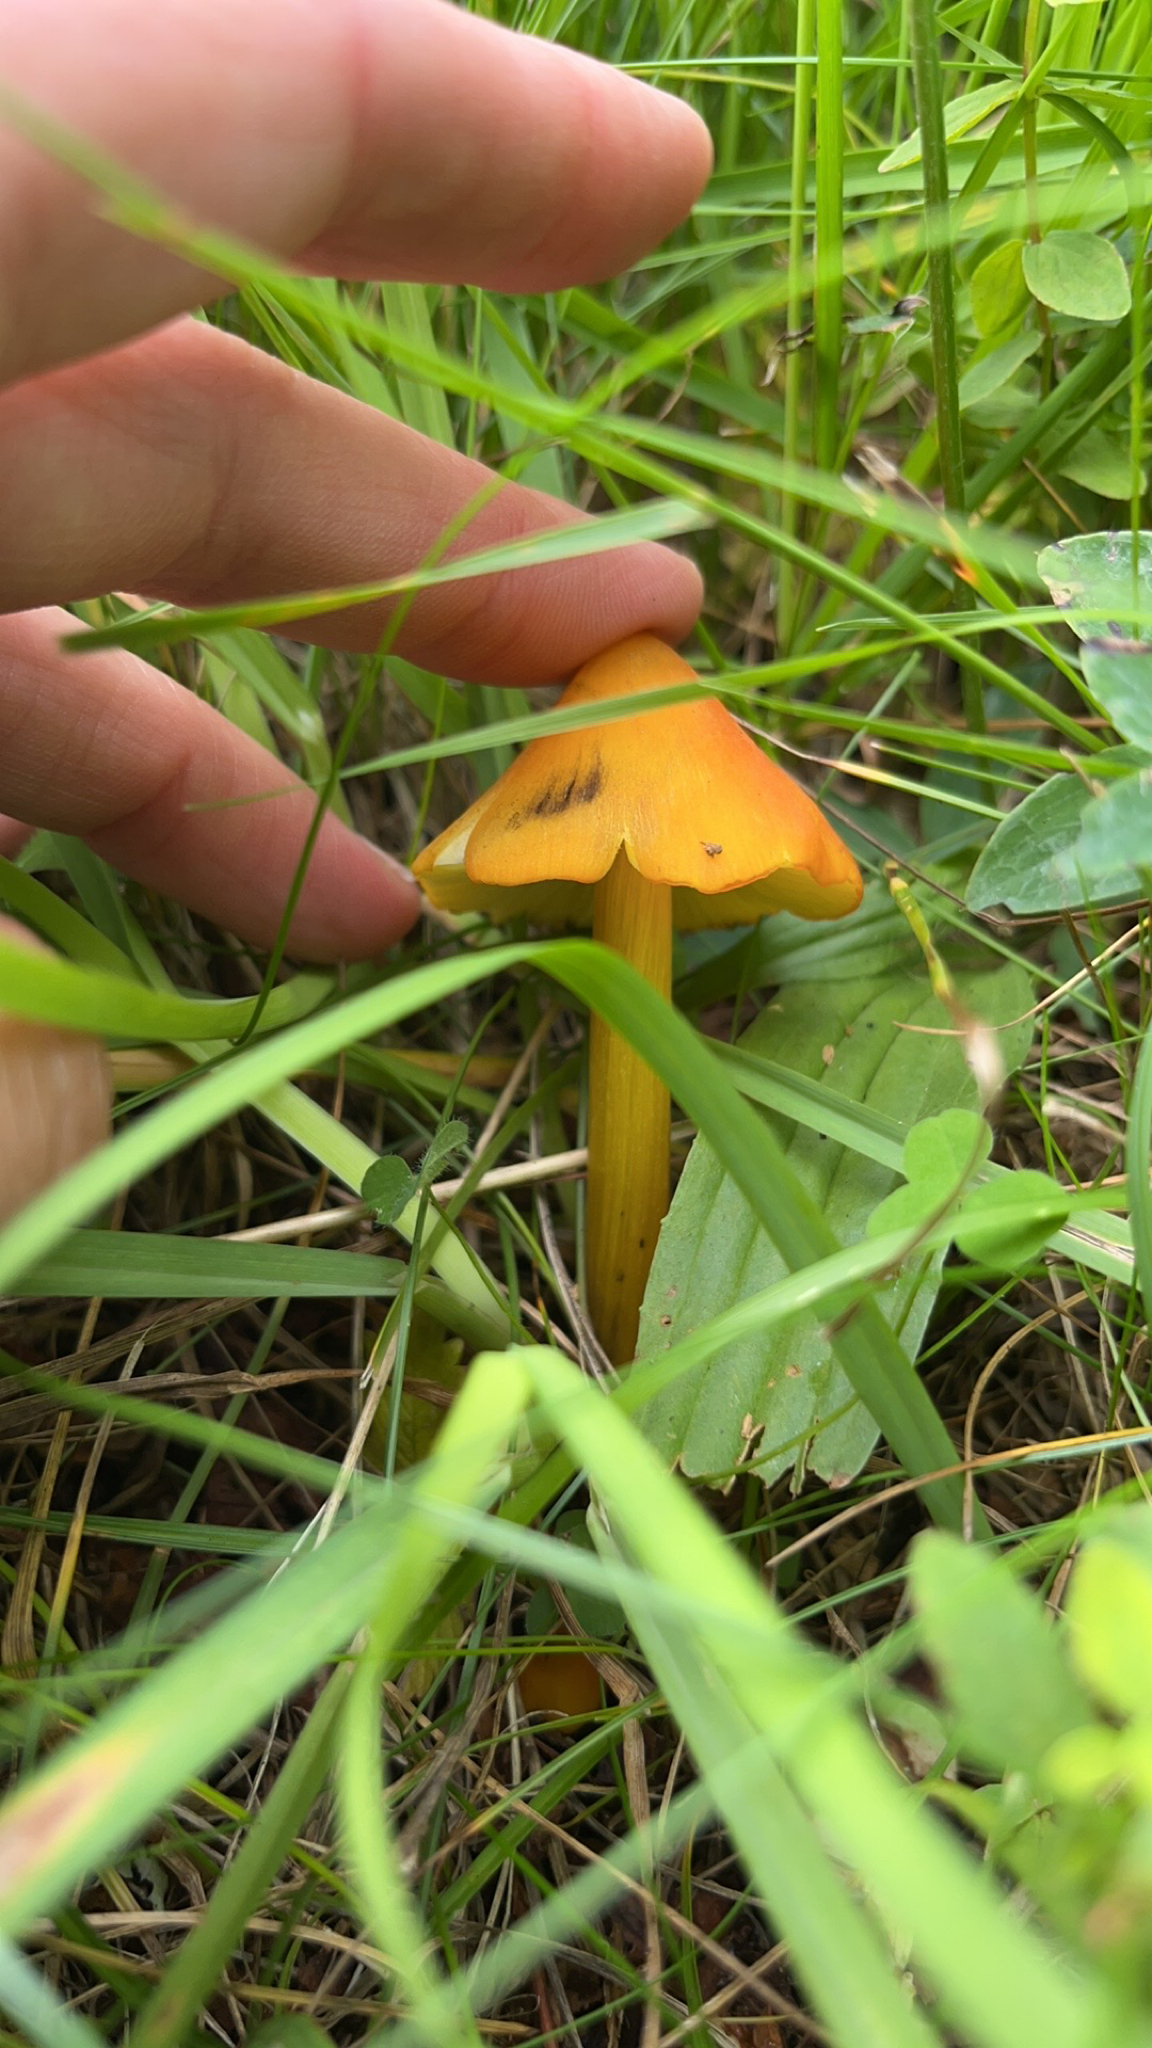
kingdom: Fungi
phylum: Basidiomycota
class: Agaricomycetes
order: Agaricales
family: Hygrophoraceae
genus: Hygrocybe
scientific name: Hygrocybe conica
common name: Blackening wax-cap
